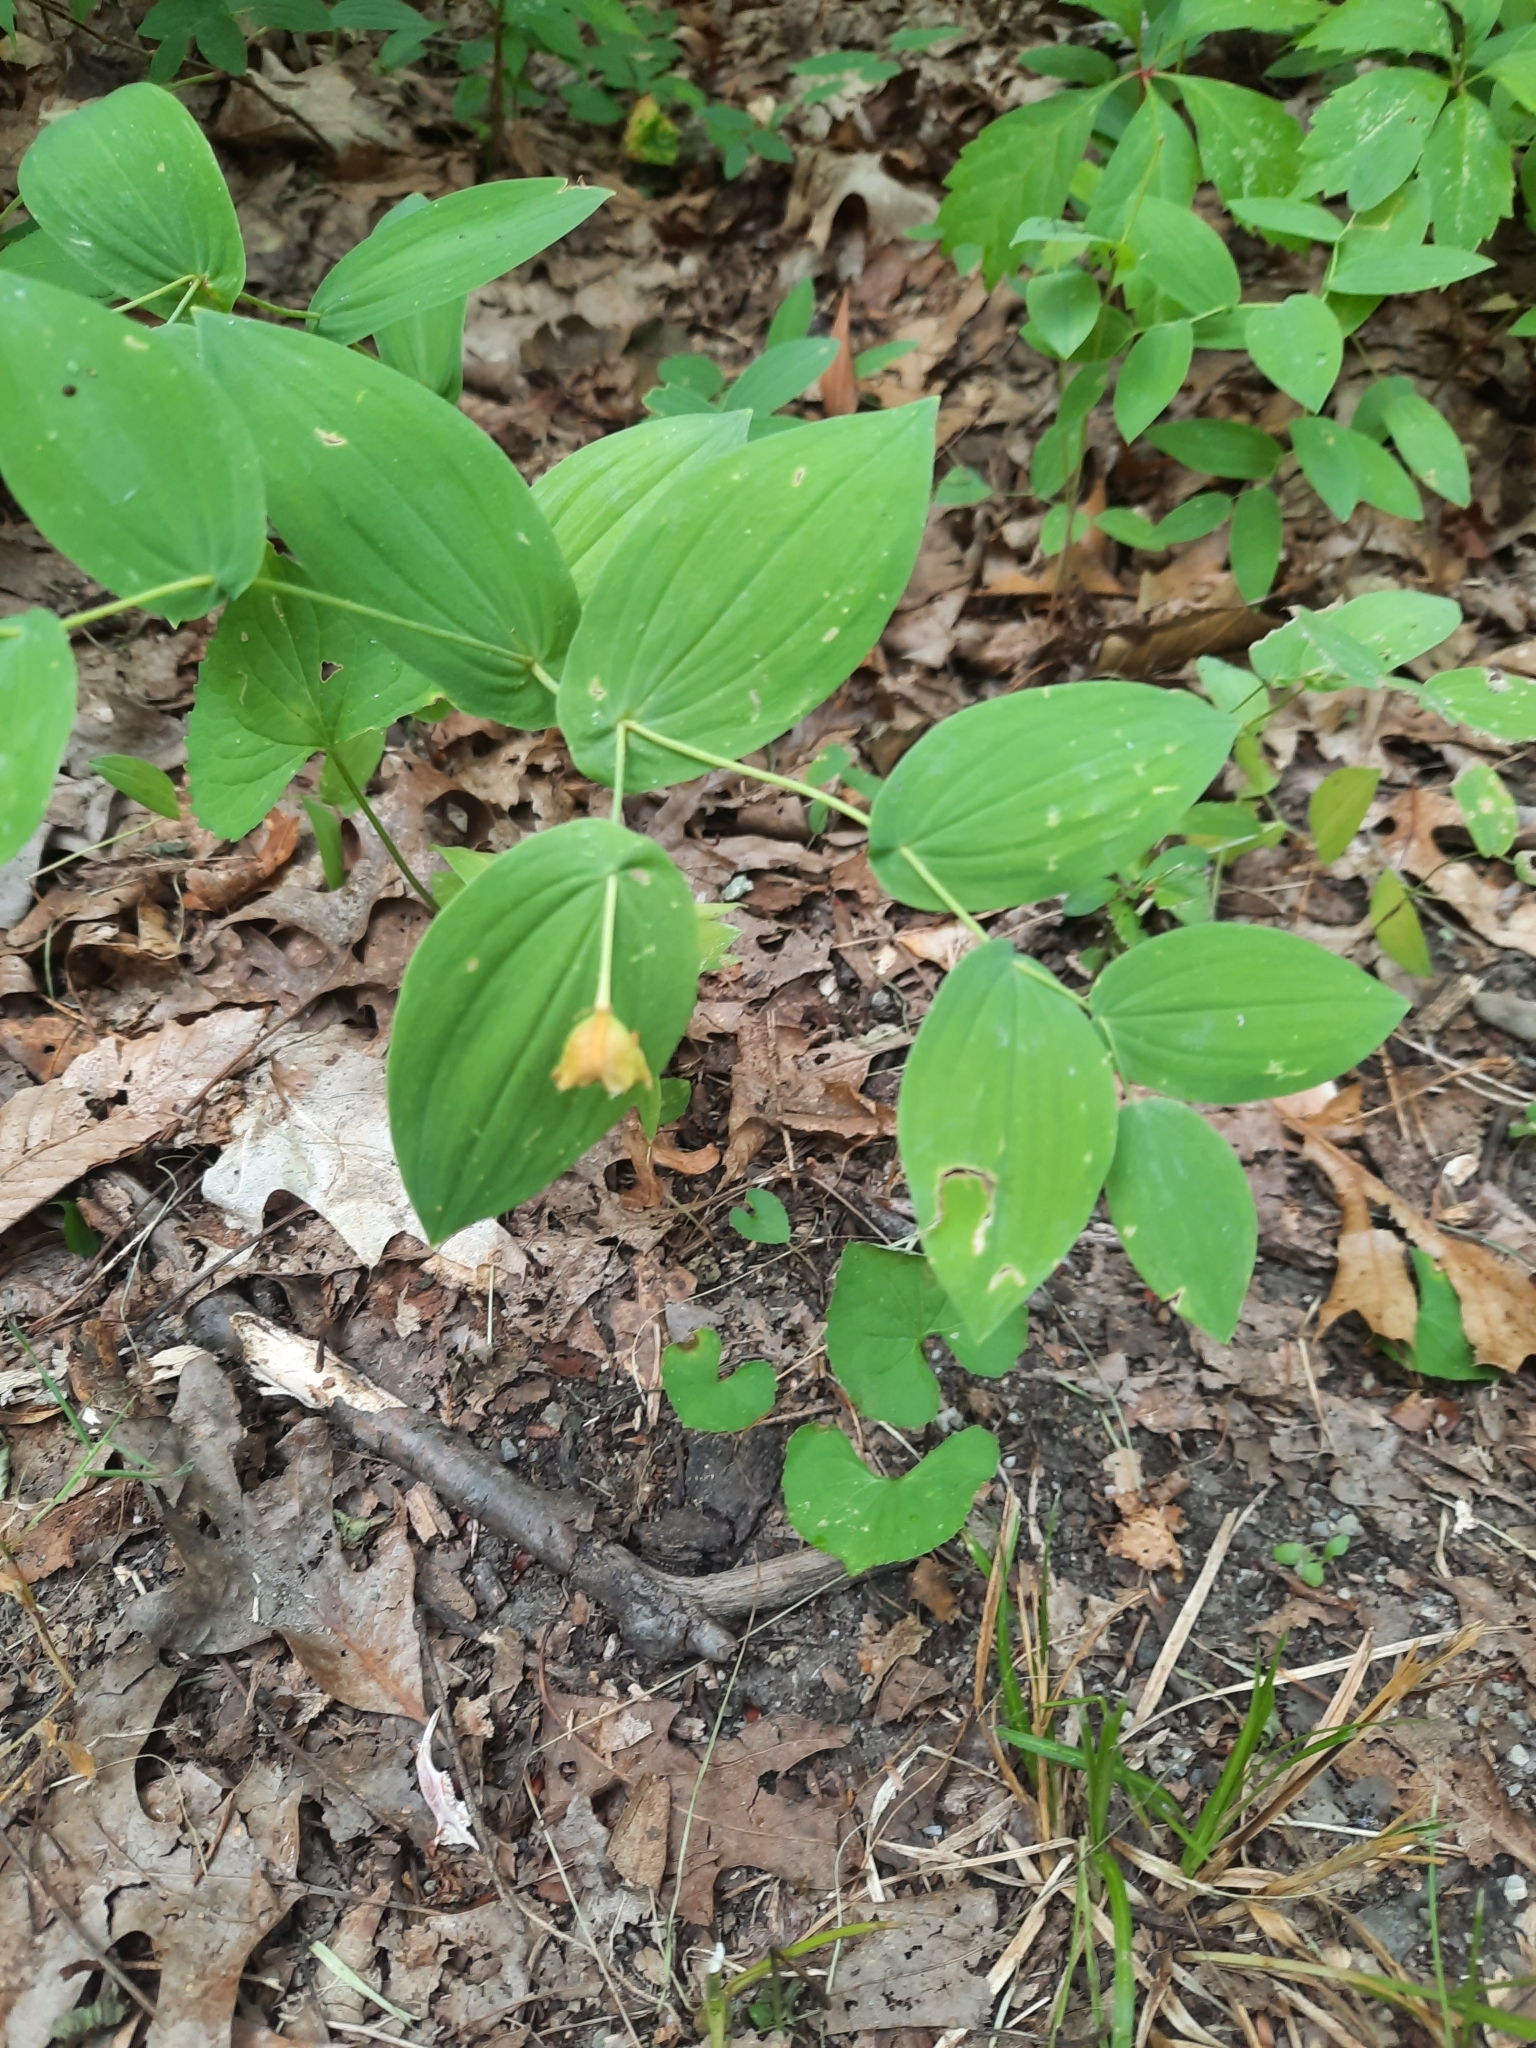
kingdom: Plantae
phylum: Tracheophyta
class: Liliopsida
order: Liliales
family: Colchicaceae
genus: Uvularia
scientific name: Uvularia perfoliata
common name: Perfoliate bellwort
